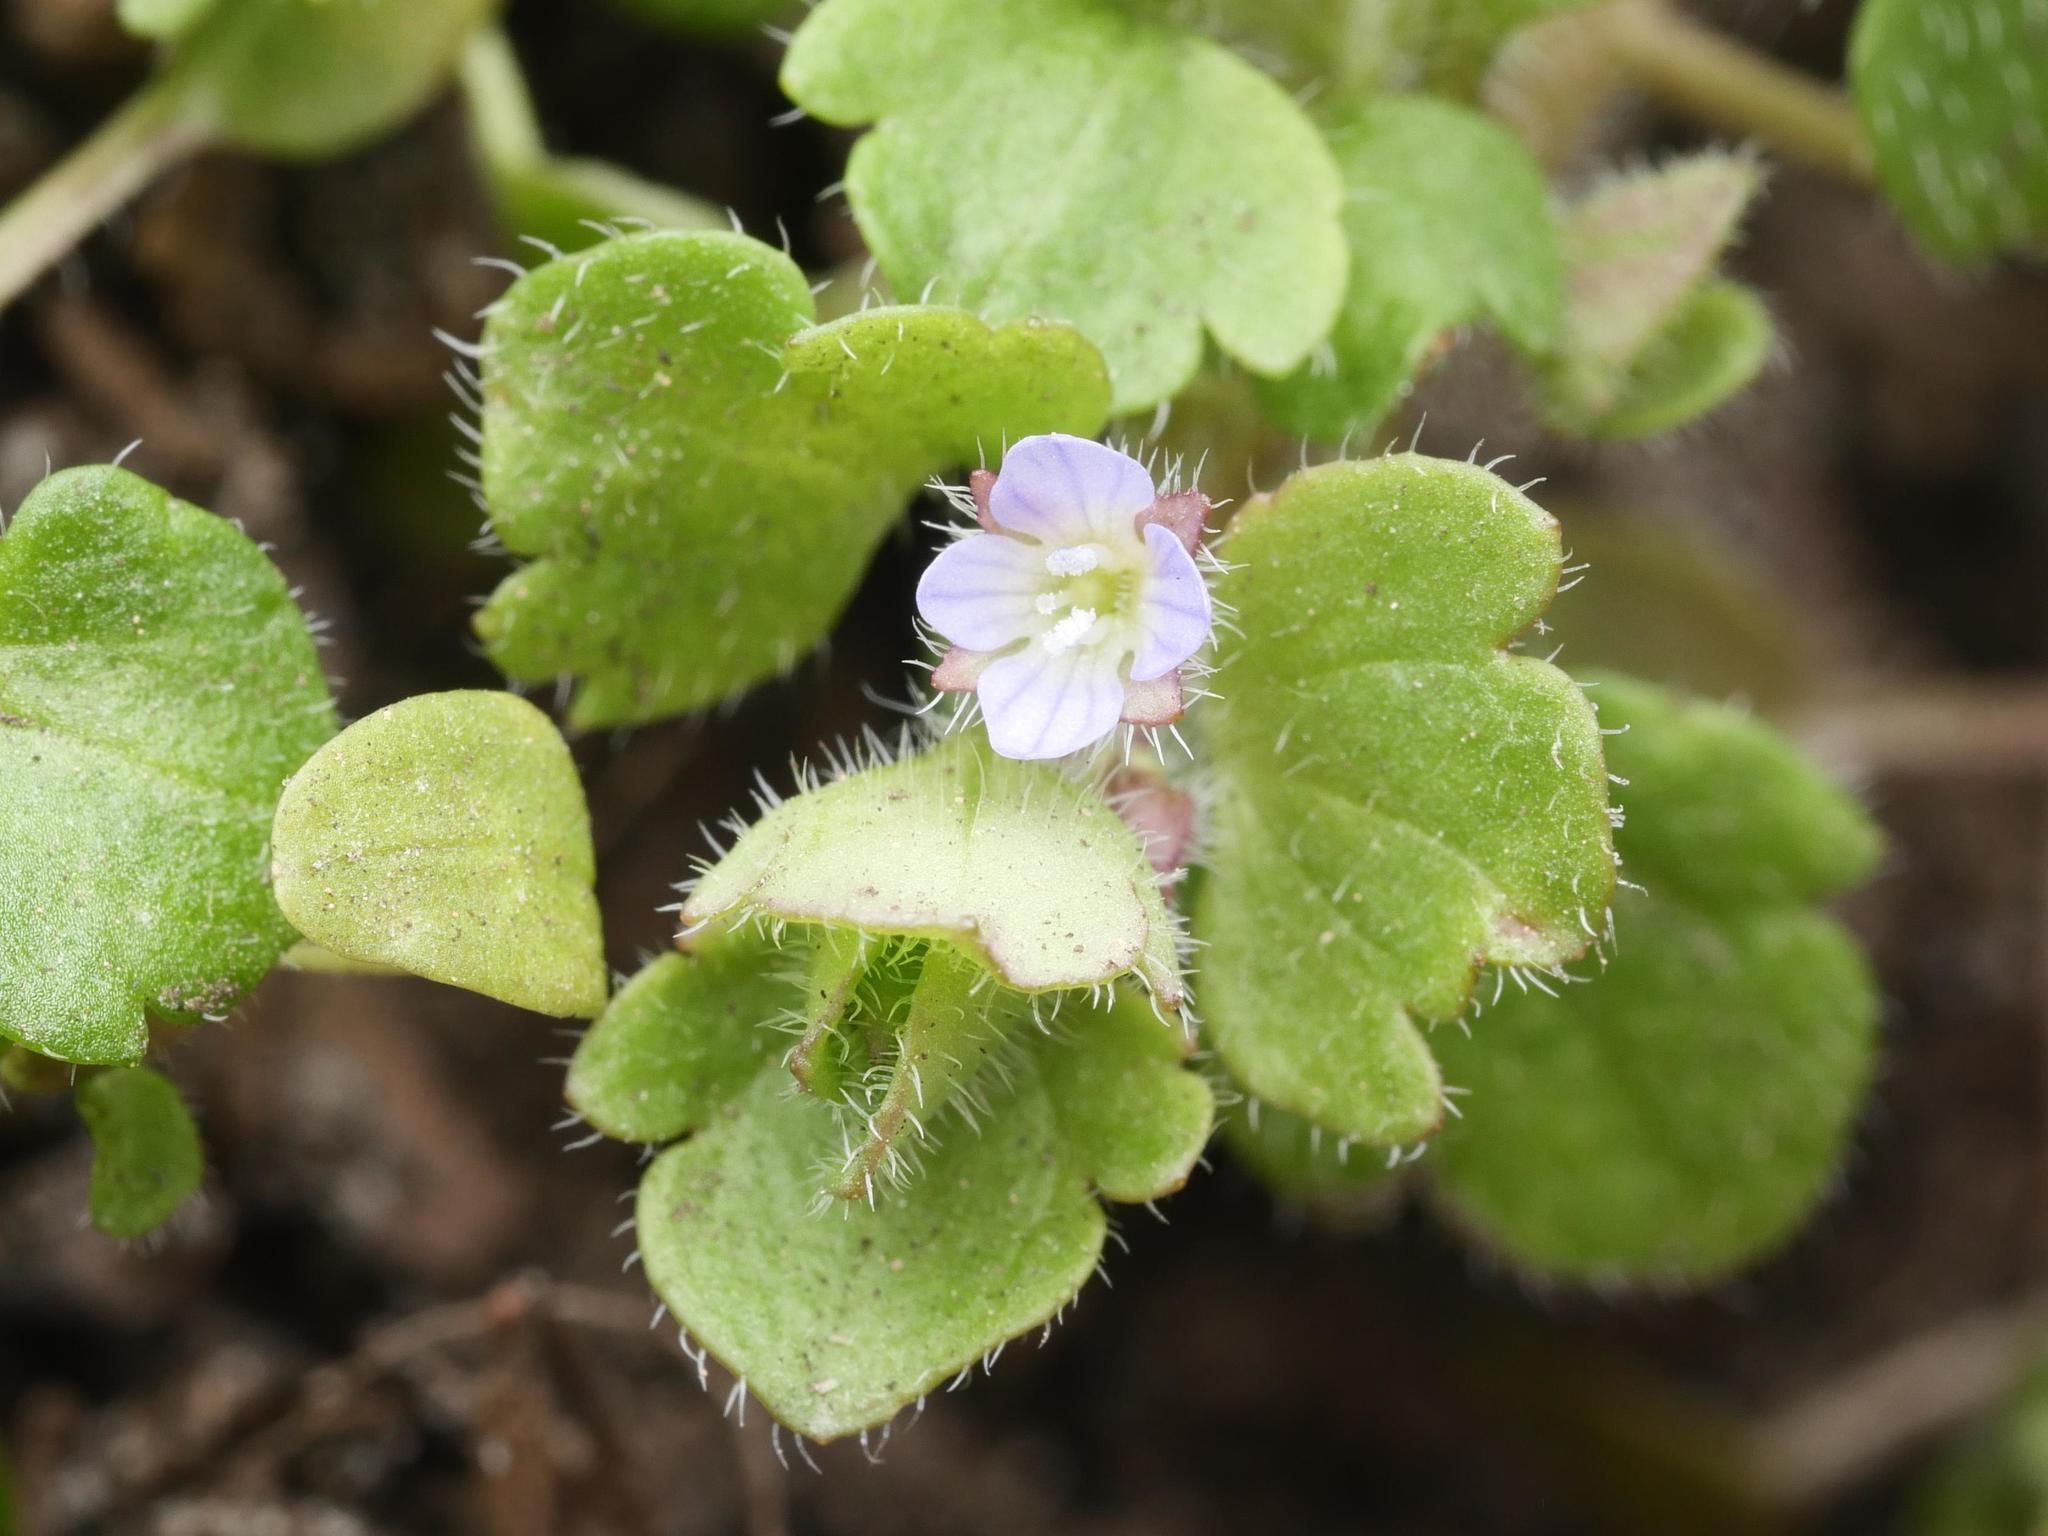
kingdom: Plantae
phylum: Tracheophyta
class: Magnoliopsida
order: Lamiales
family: Plantaginaceae
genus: Veronica
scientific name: Veronica sublobata
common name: False ivy-leaved speedwell
